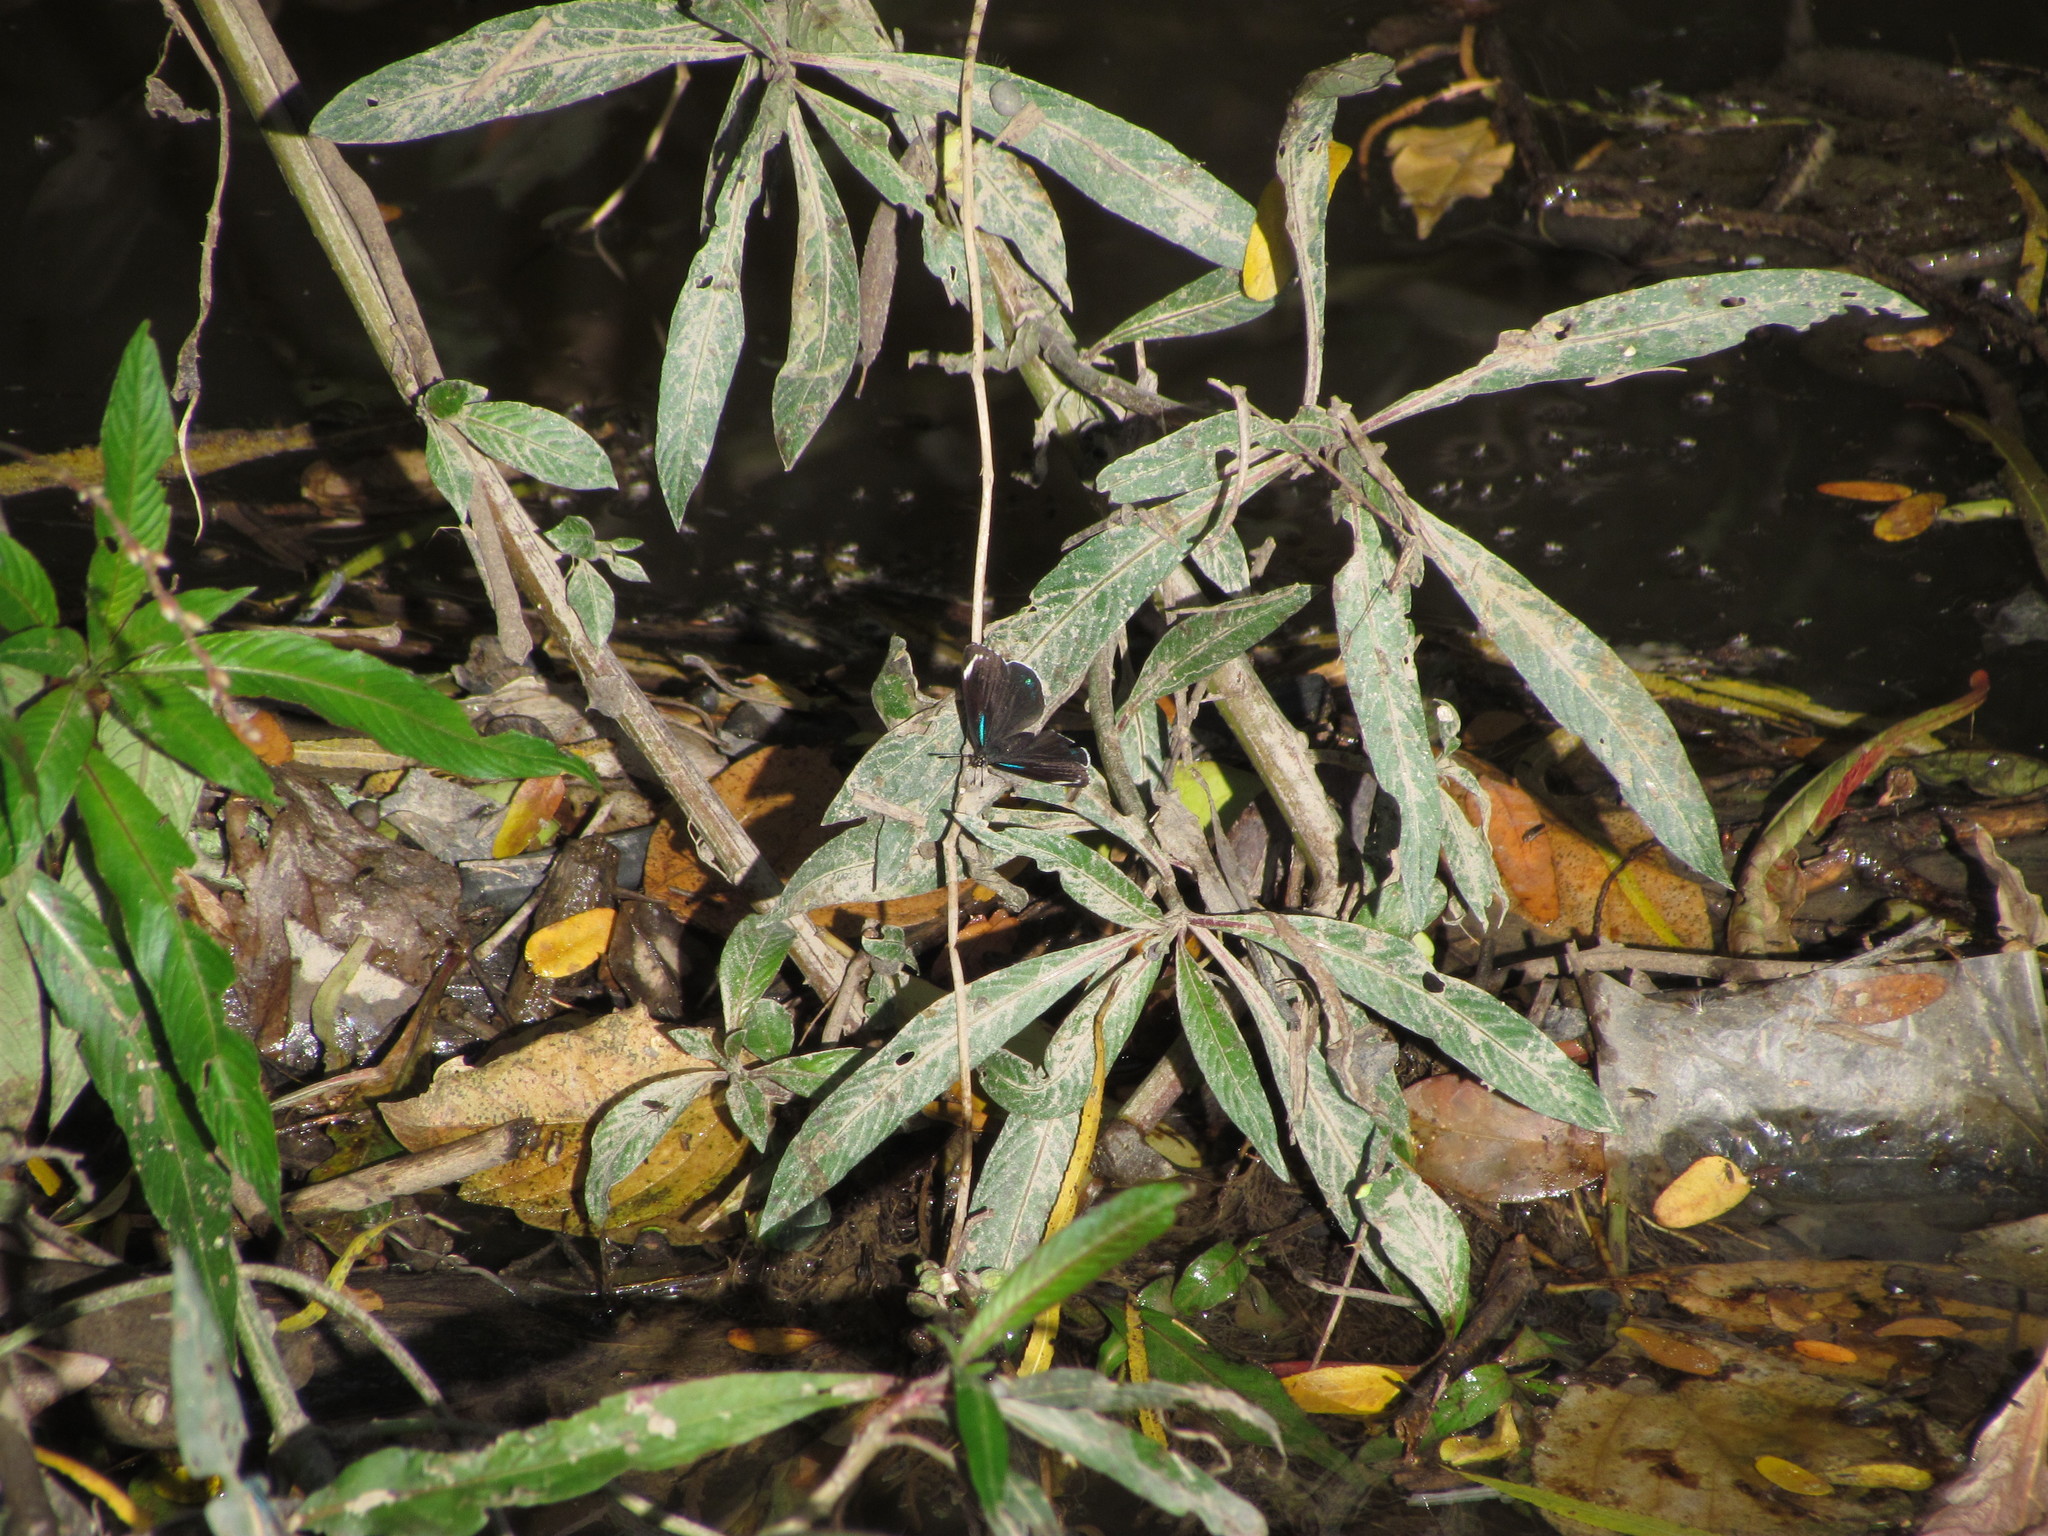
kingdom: Animalia
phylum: Arthropoda
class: Insecta
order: Lepidoptera
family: Nymphalidae
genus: Diaethria
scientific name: Diaethria candrena
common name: Number eighty
